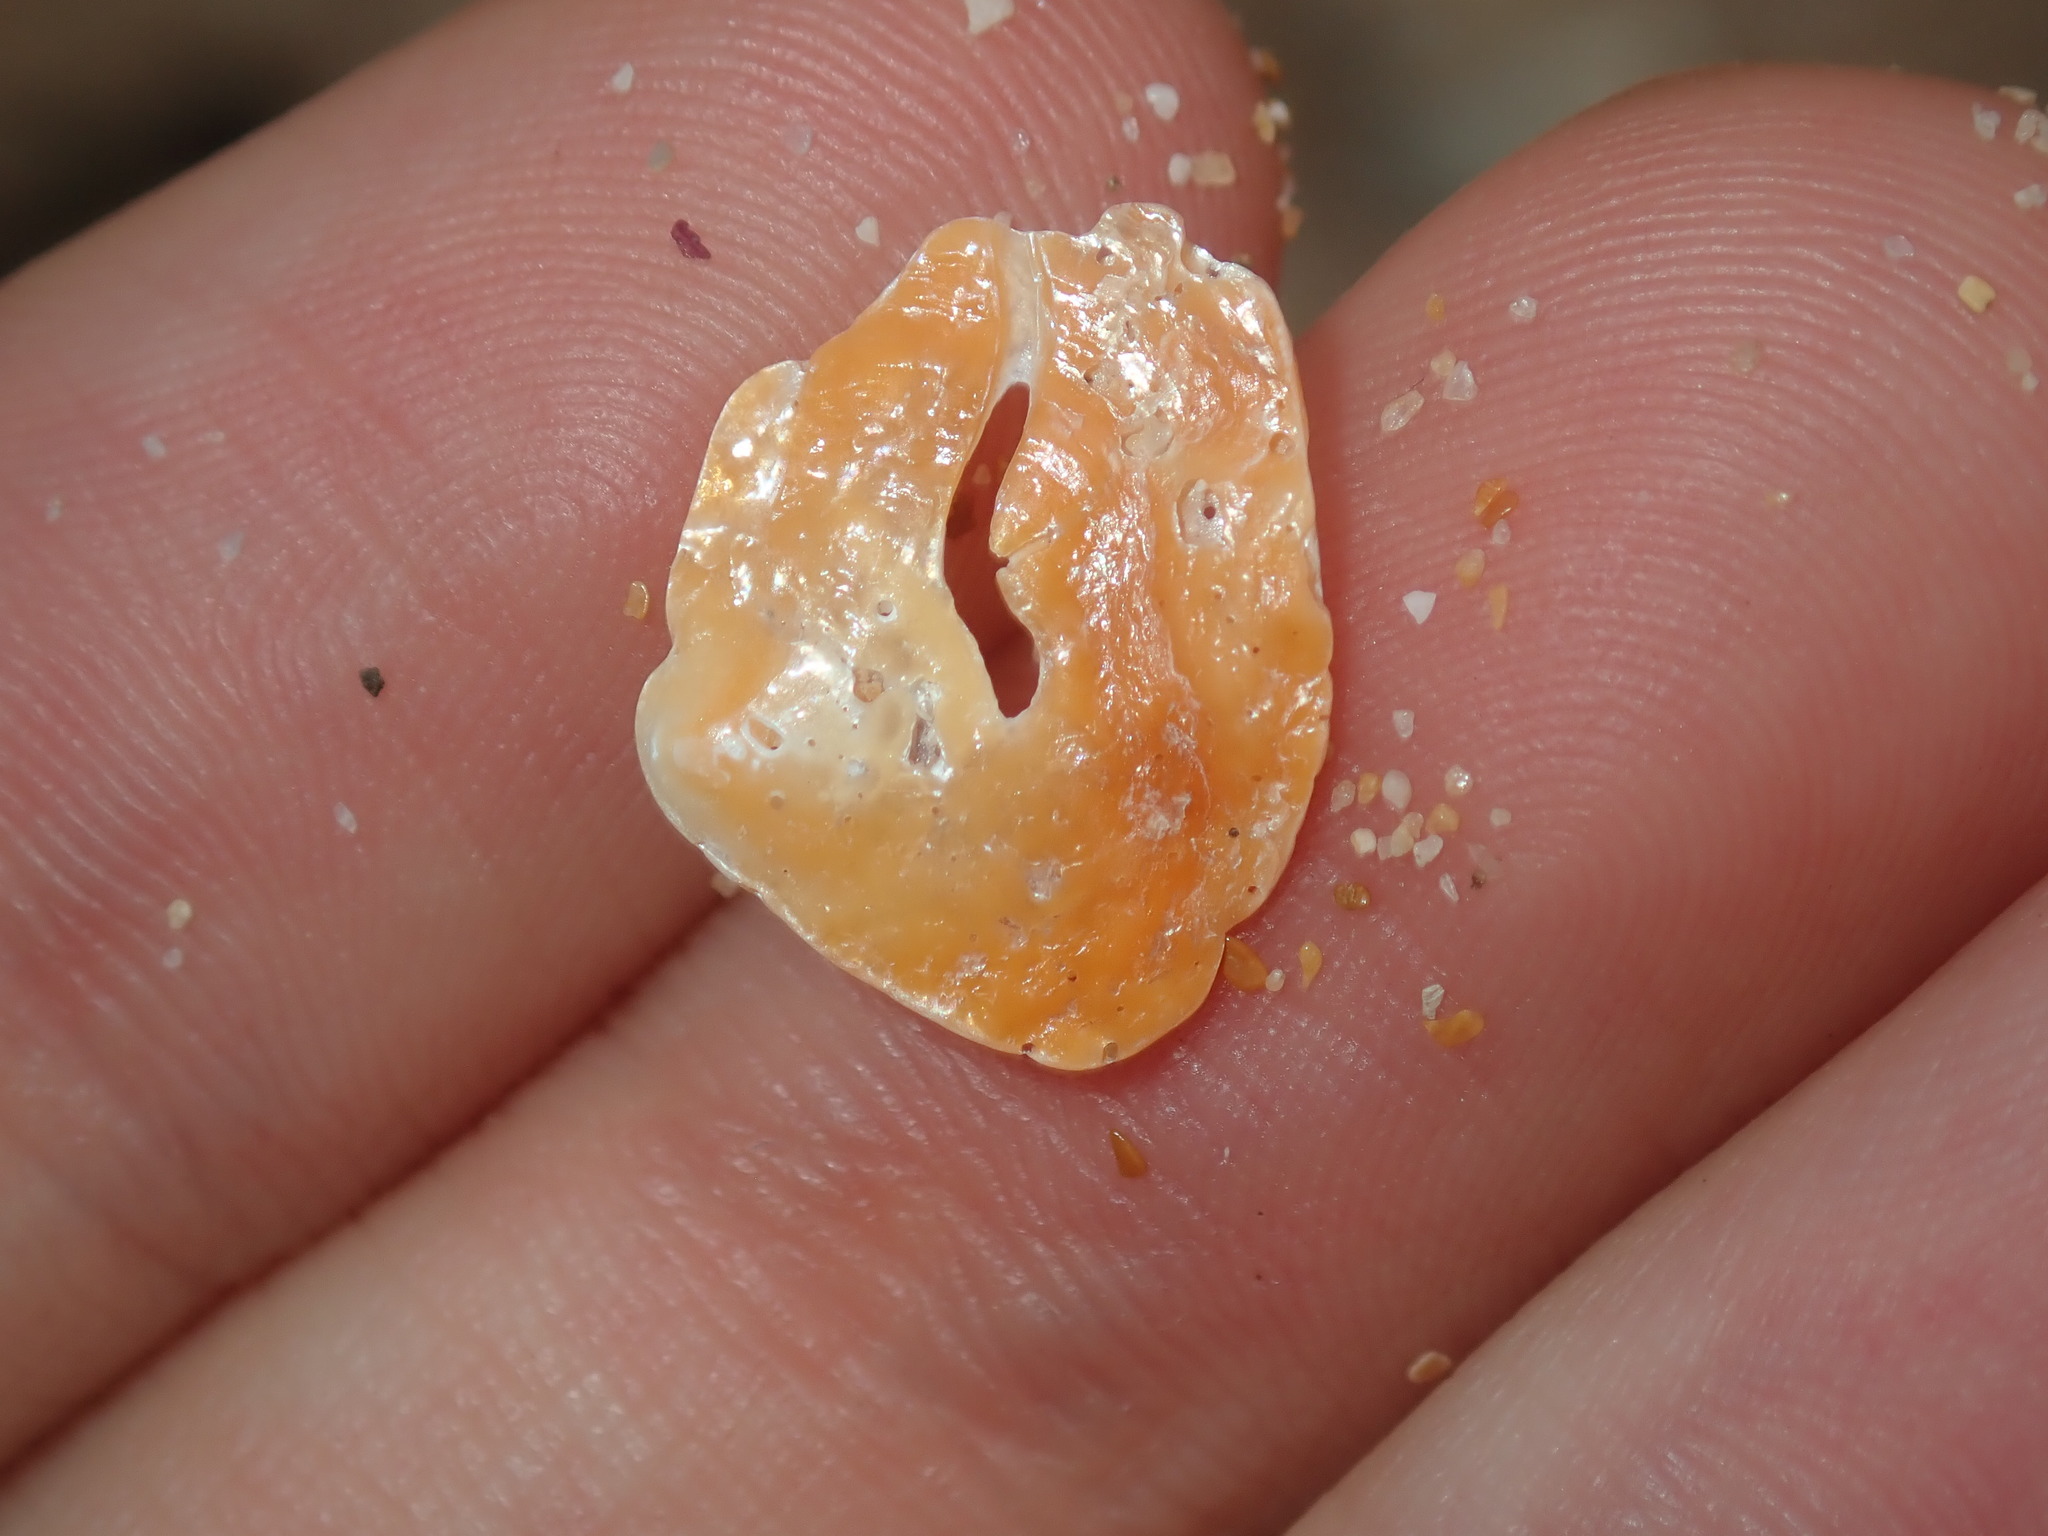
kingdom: Animalia
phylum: Mollusca
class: Bivalvia
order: Pectinida
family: Anomiidae
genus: Anomia
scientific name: Anomia trigonopsis
